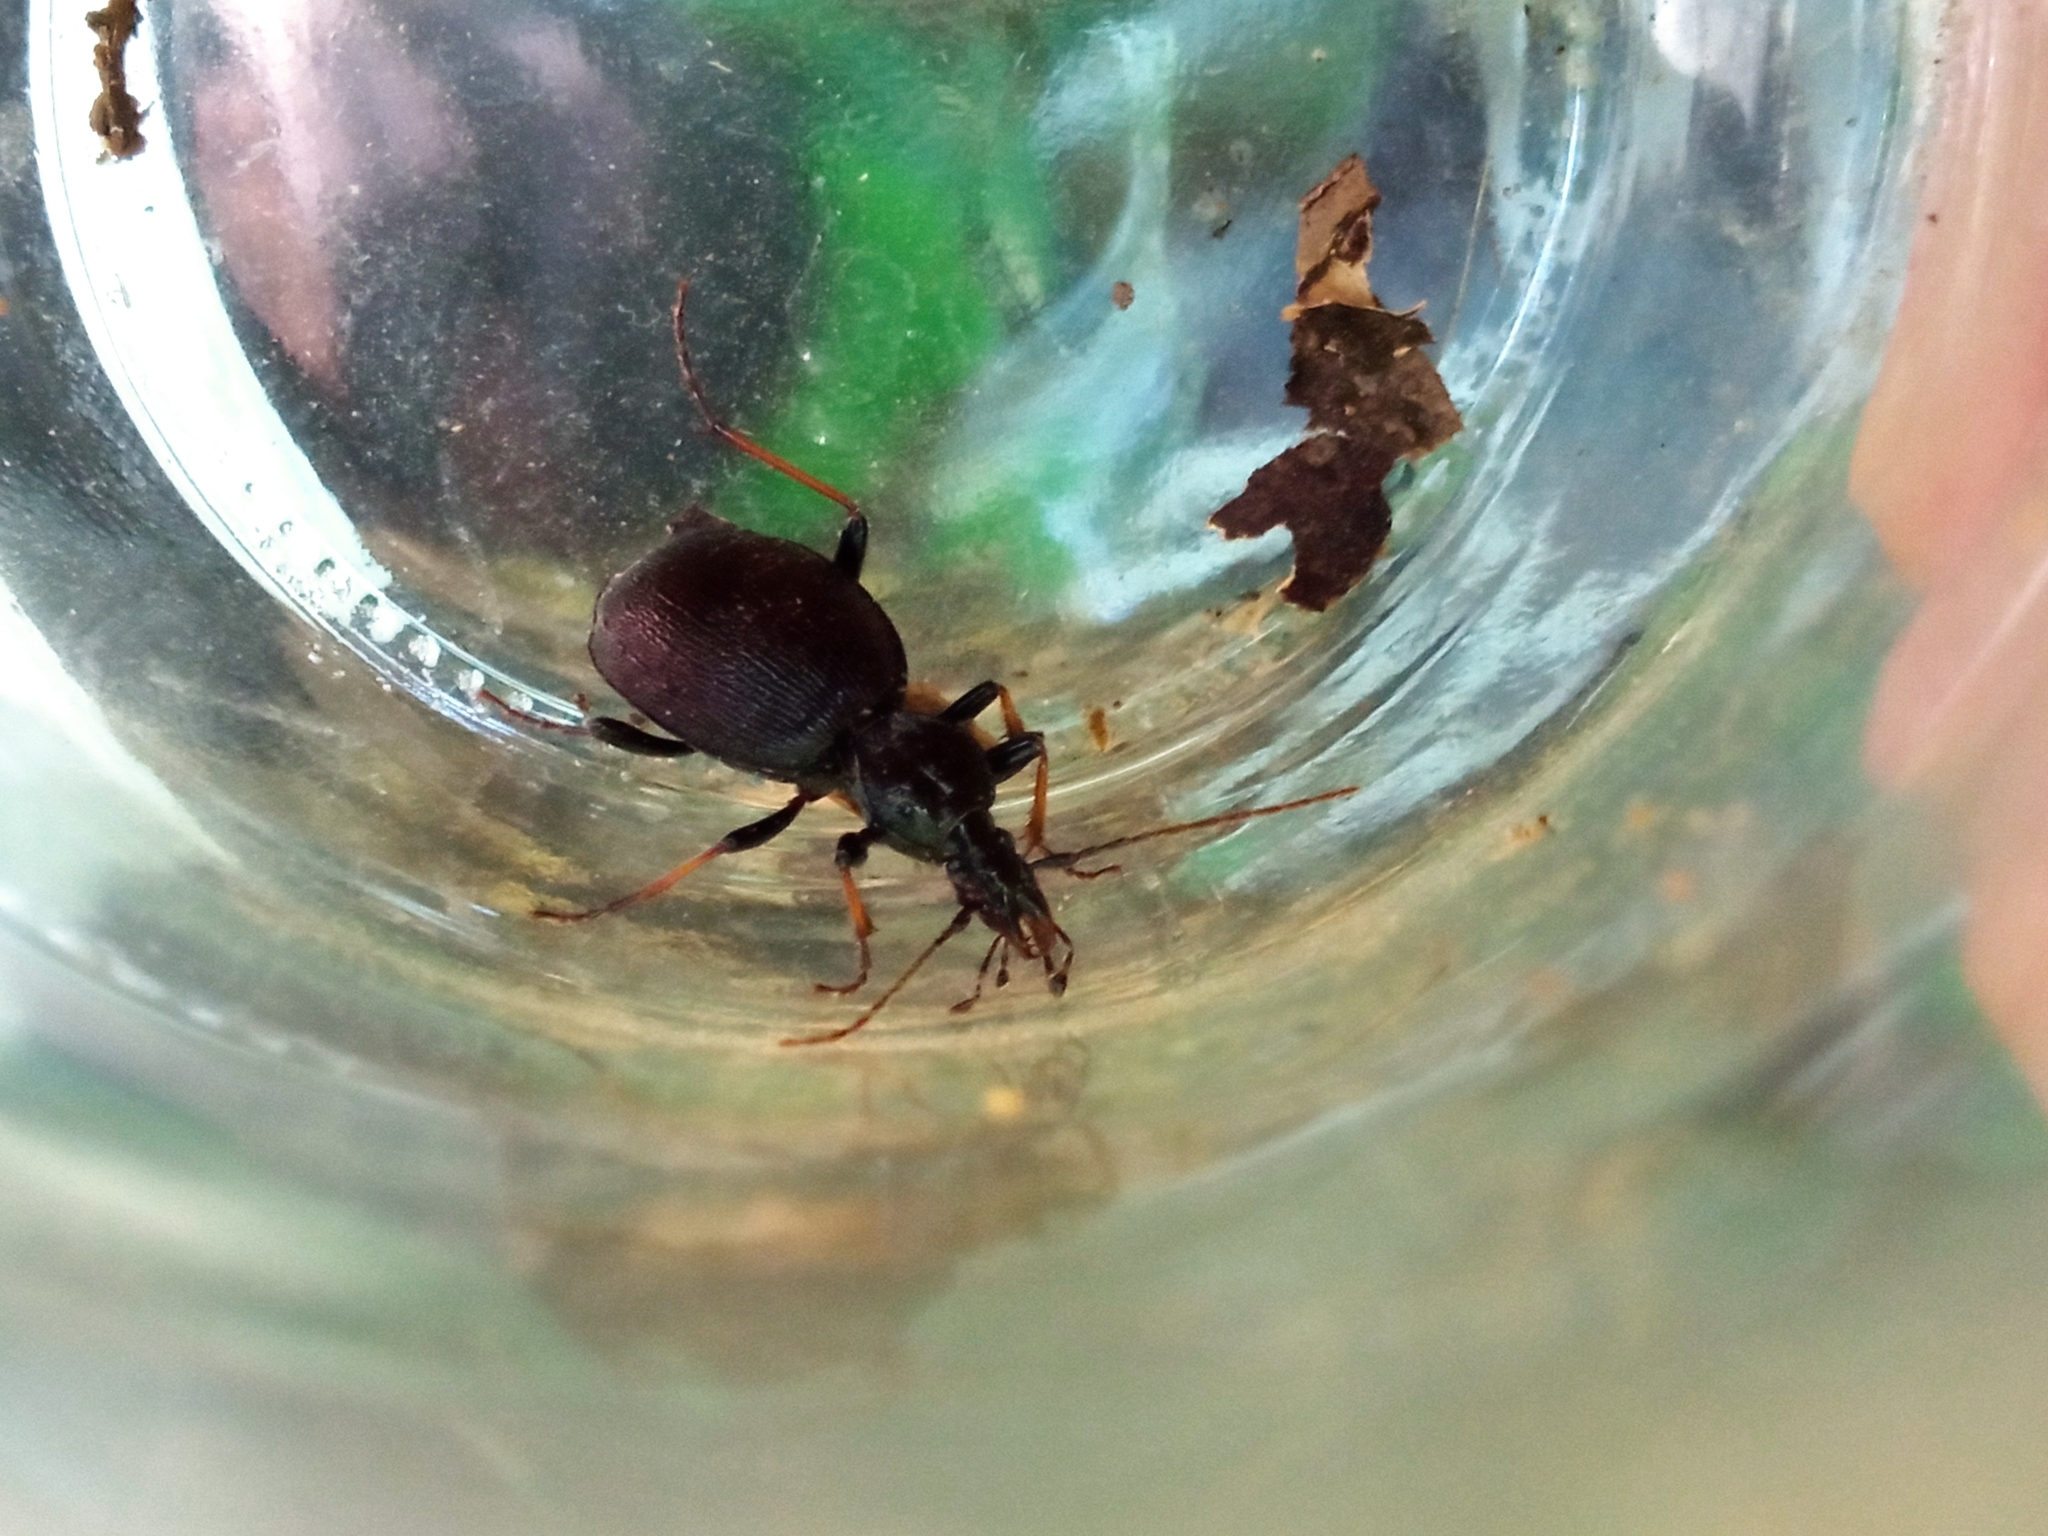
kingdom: Animalia
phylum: Arthropoda
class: Insecta
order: Coleoptera
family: Carabidae
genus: Cychrus
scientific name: Cychrus attenuatus
